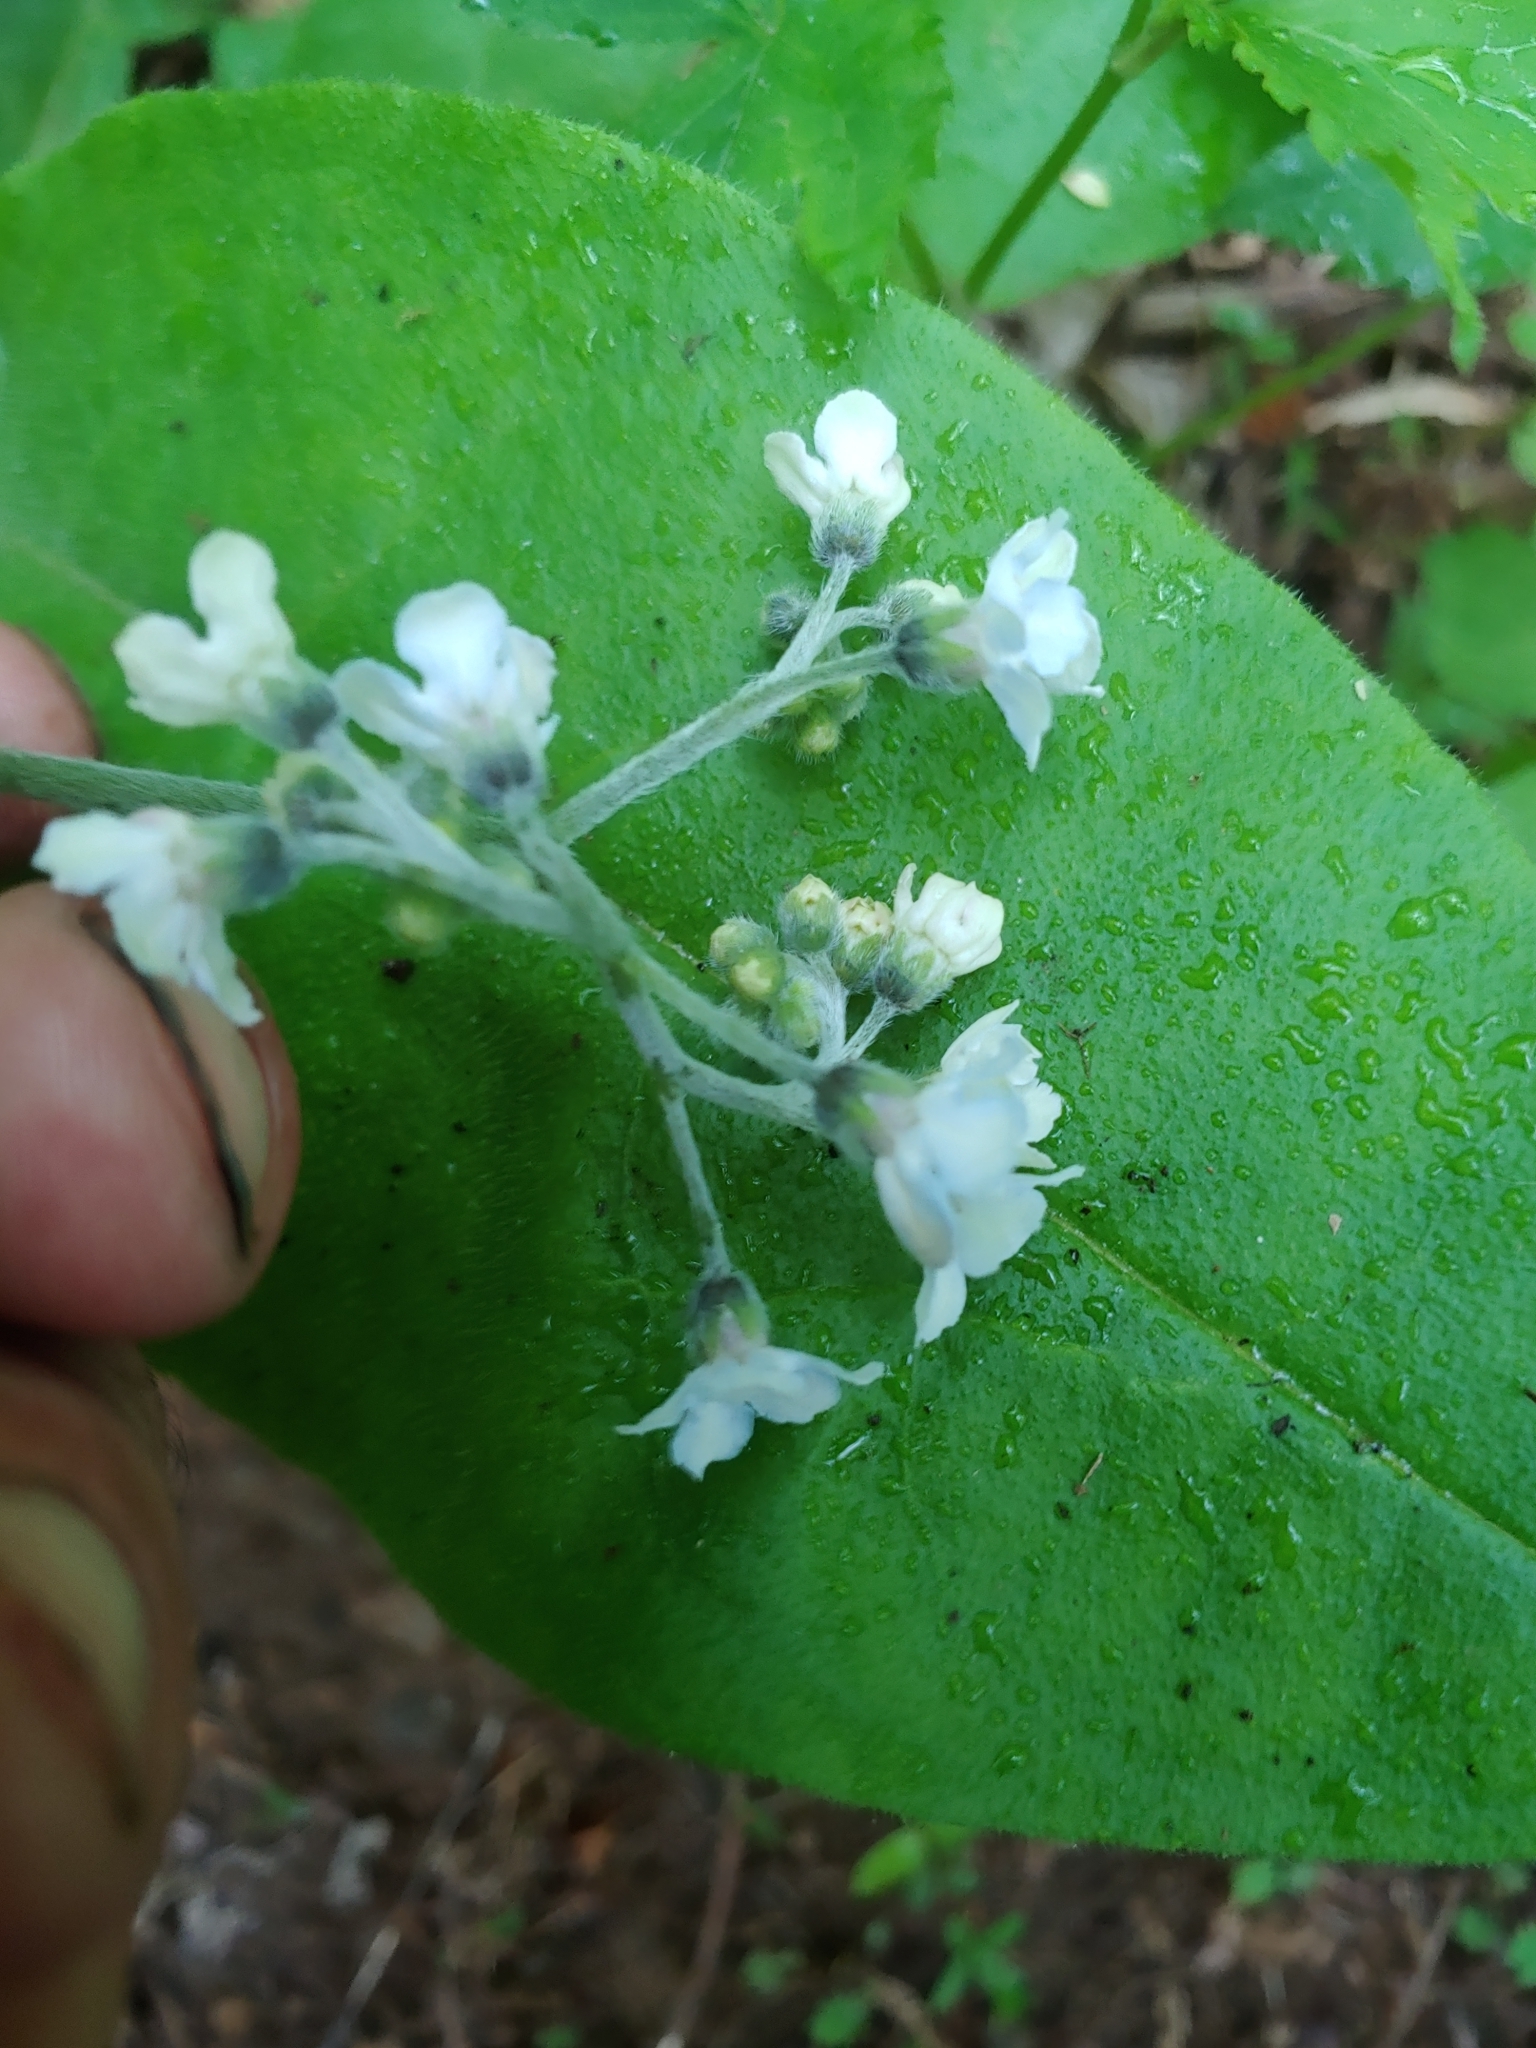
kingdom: Plantae
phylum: Tracheophyta
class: Magnoliopsida
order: Boraginales
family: Boraginaceae
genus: Andersonglossum
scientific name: Andersonglossum virginianum
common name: Wild comfrey
